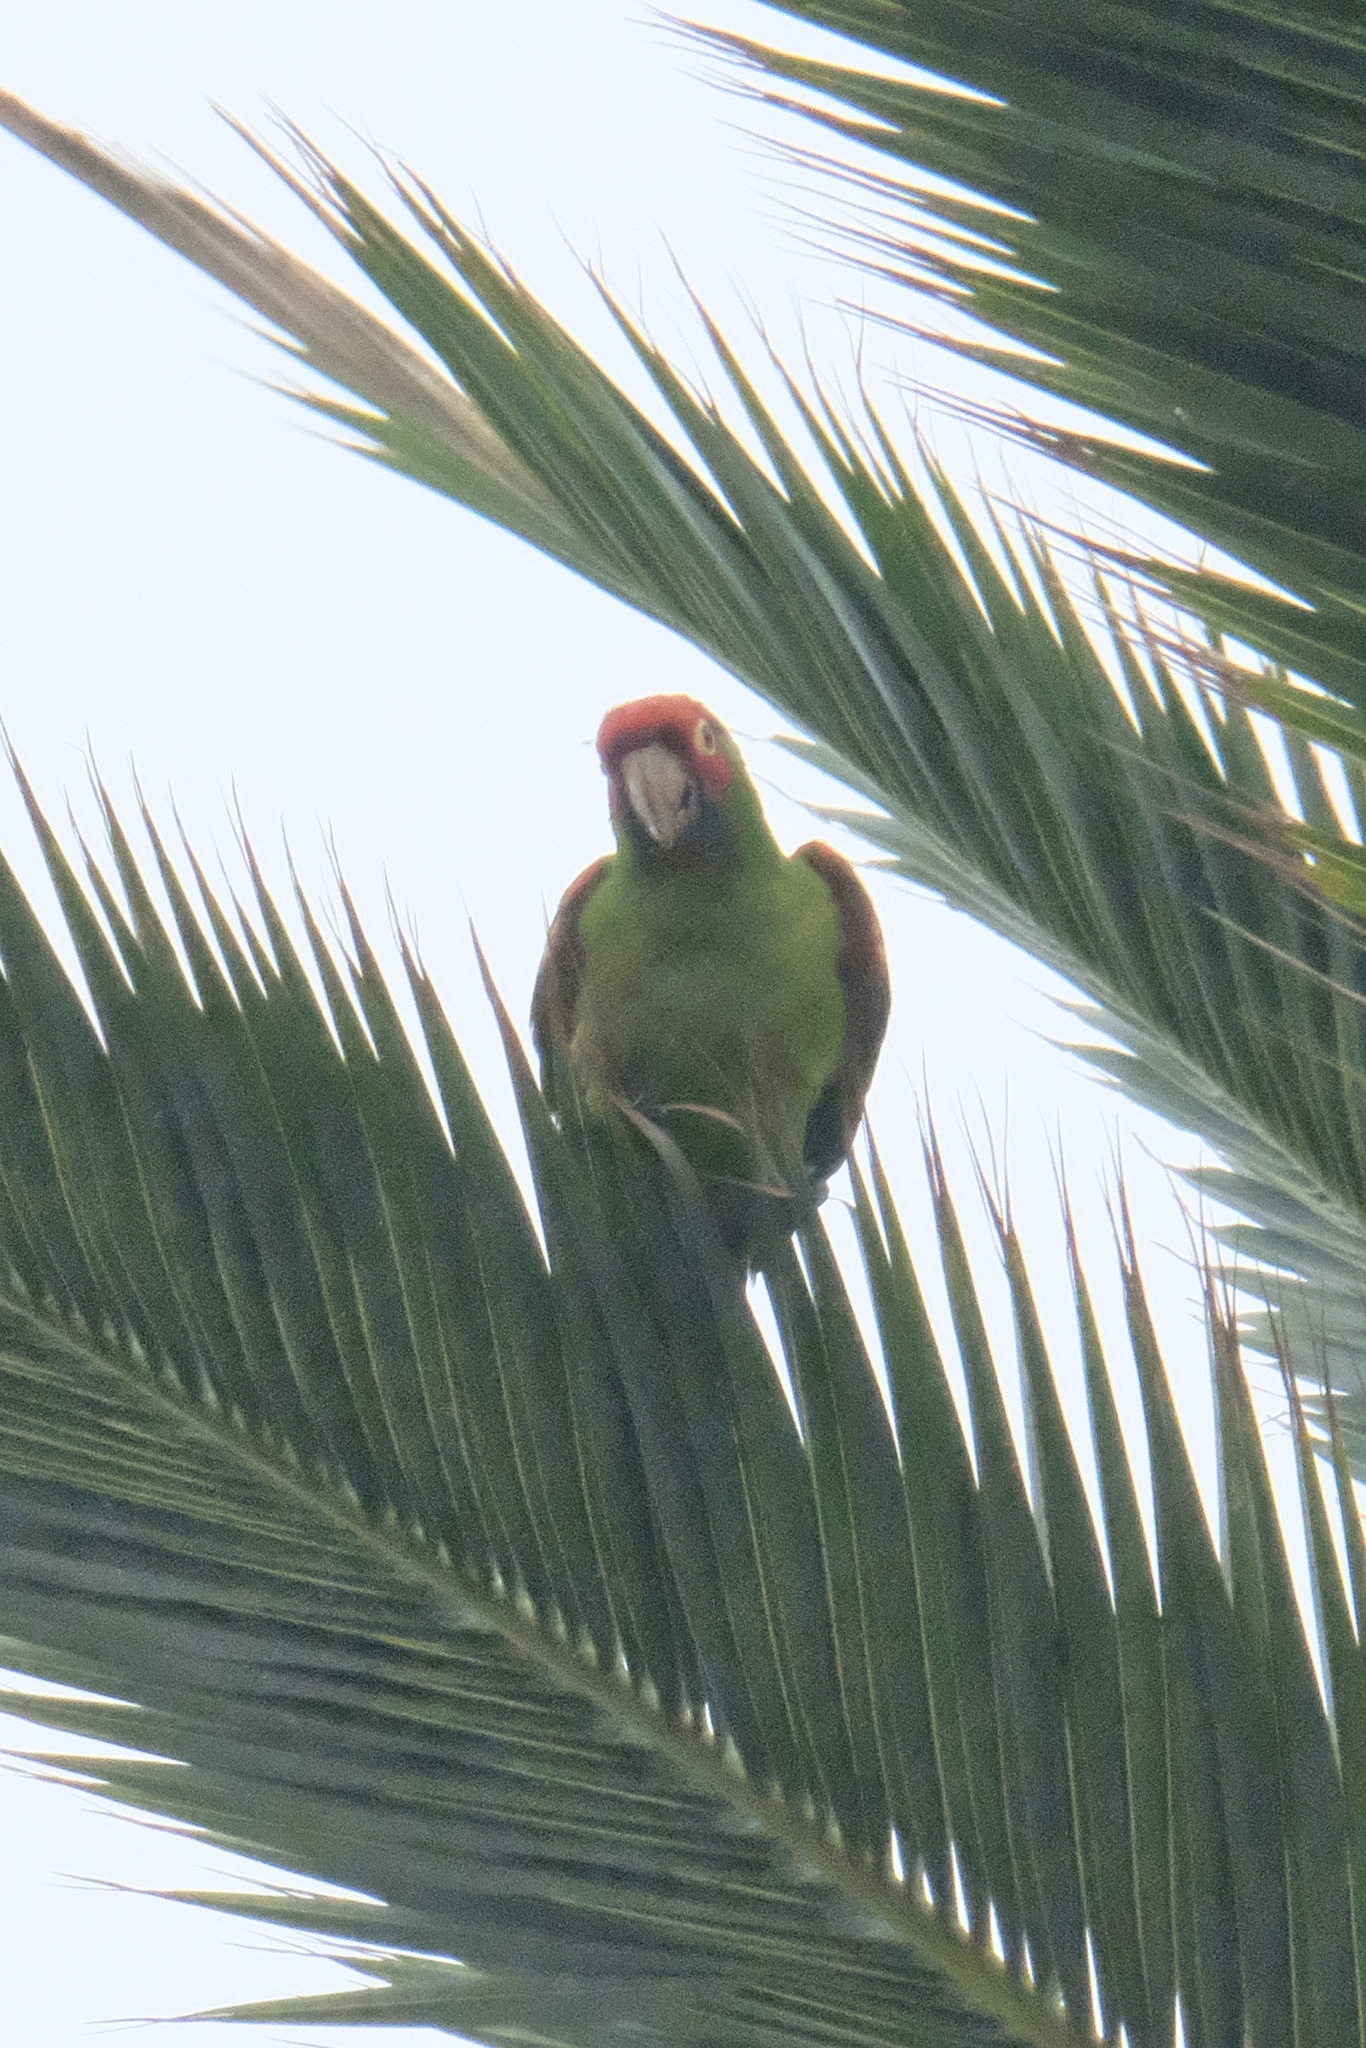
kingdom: Animalia
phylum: Chordata
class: Aves
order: Psittaciformes
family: Psittacidae
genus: Aratinga
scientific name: Aratinga erythrogenys
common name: Red-masked parakeet
